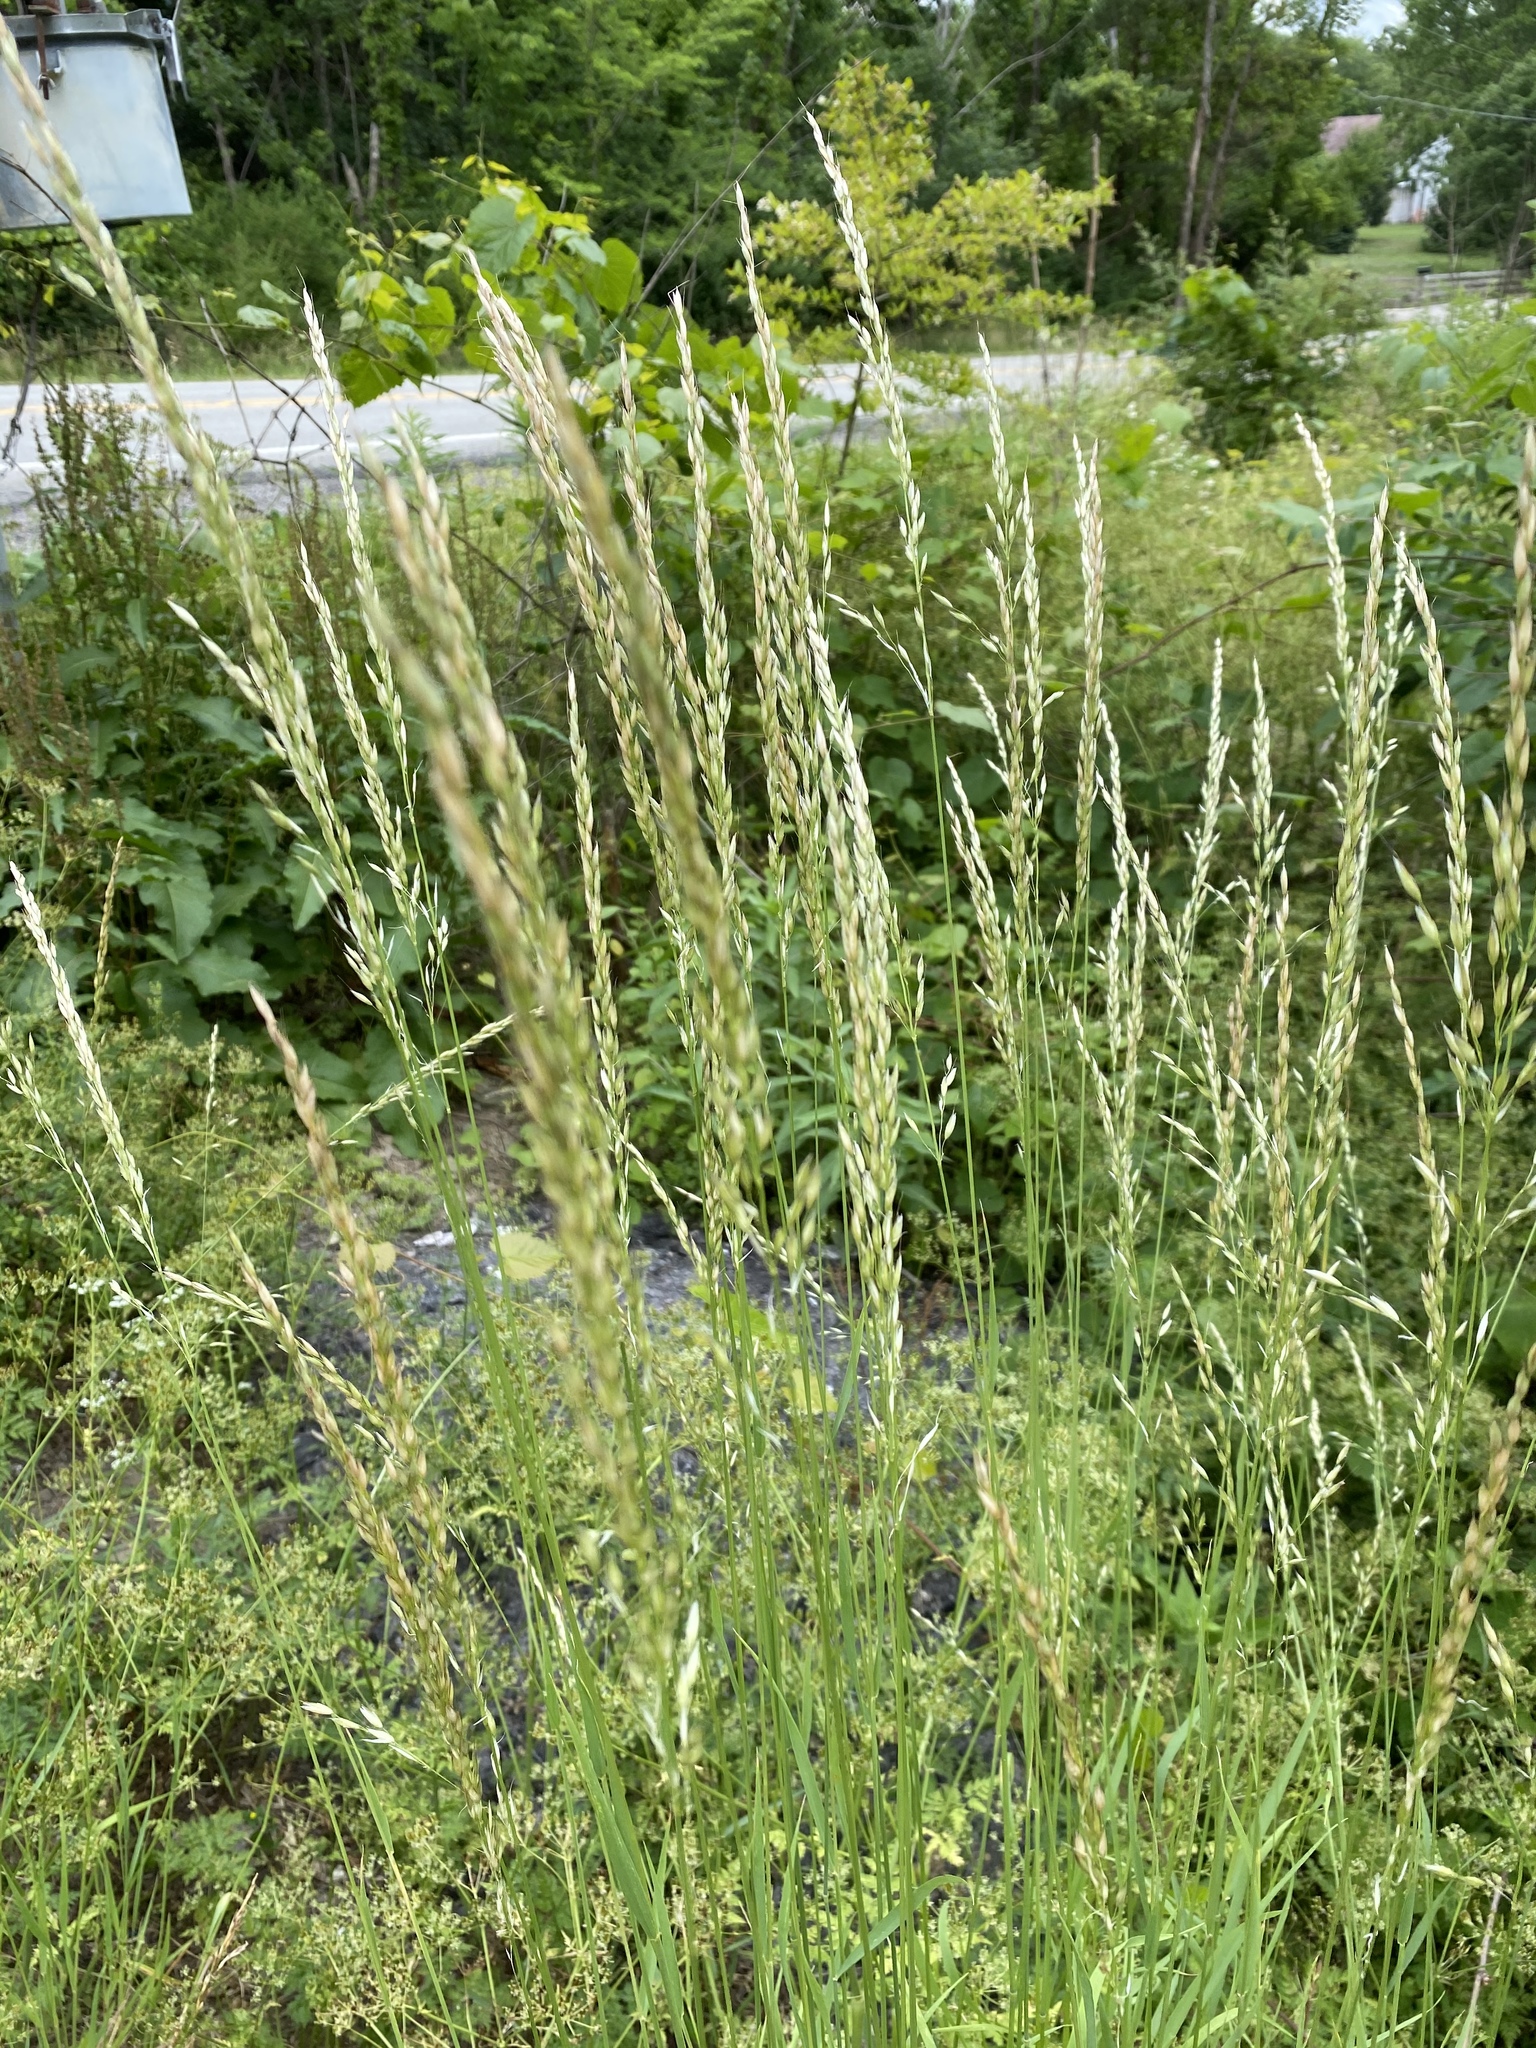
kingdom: Plantae
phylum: Tracheophyta
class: Liliopsida
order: Poales
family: Poaceae
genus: Arrhenatherum
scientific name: Arrhenatherum elatius
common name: Tall oatgrass
